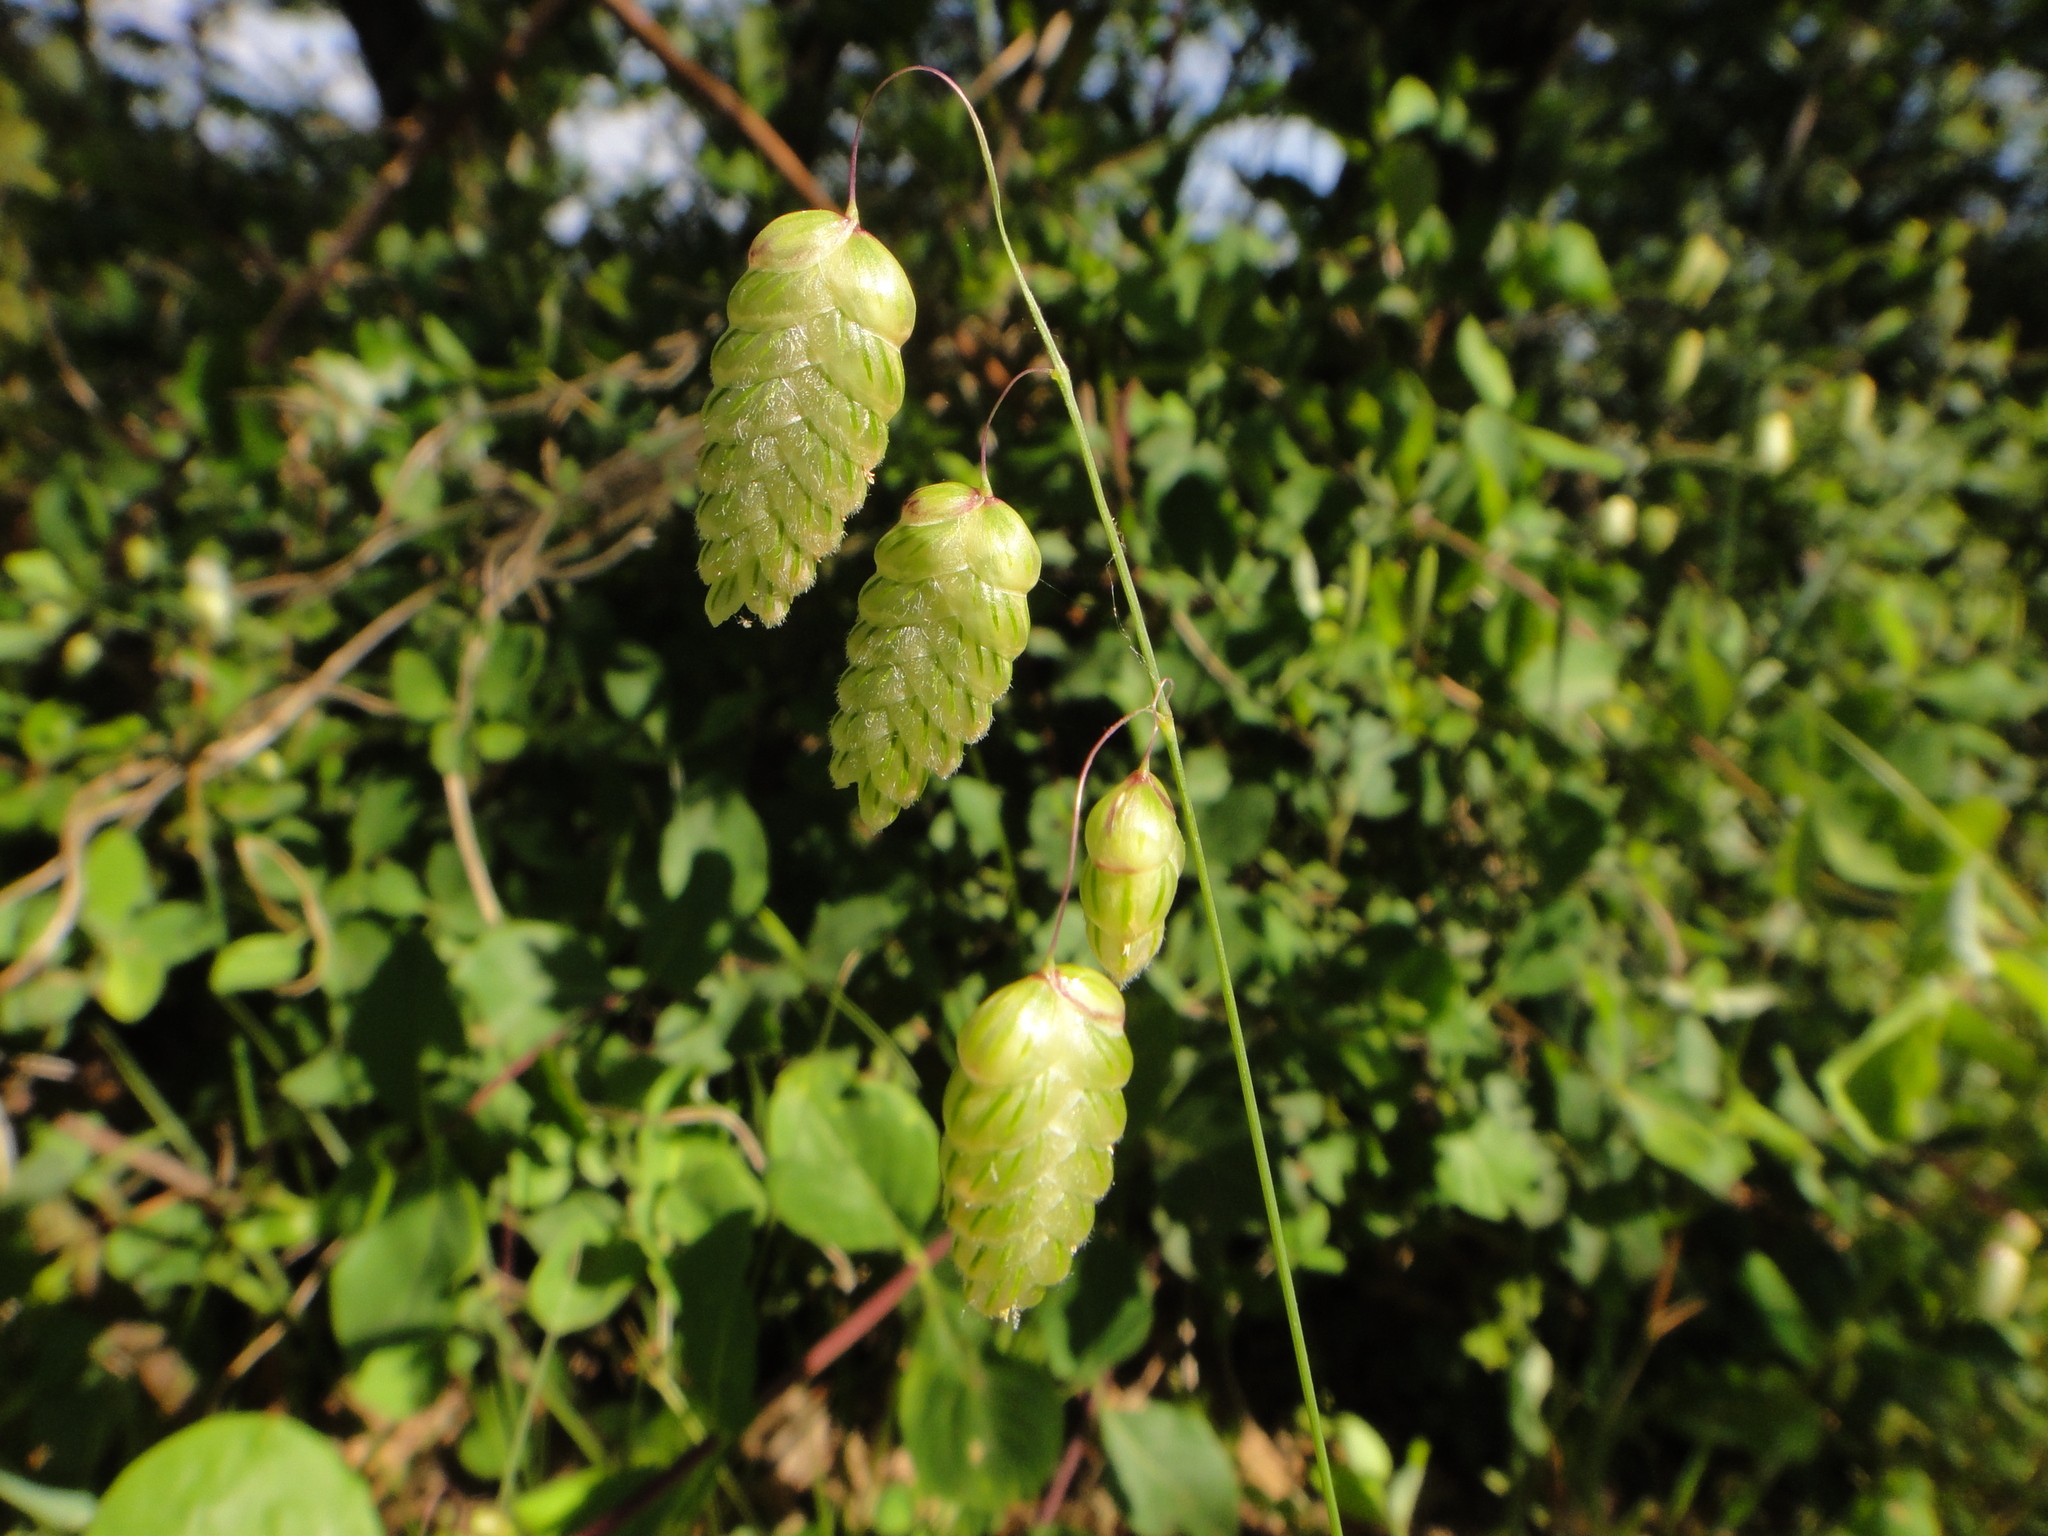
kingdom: Plantae
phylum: Tracheophyta
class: Liliopsida
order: Poales
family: Poaceae
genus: Briza
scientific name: Briza maxima
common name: Big quakinggrass
